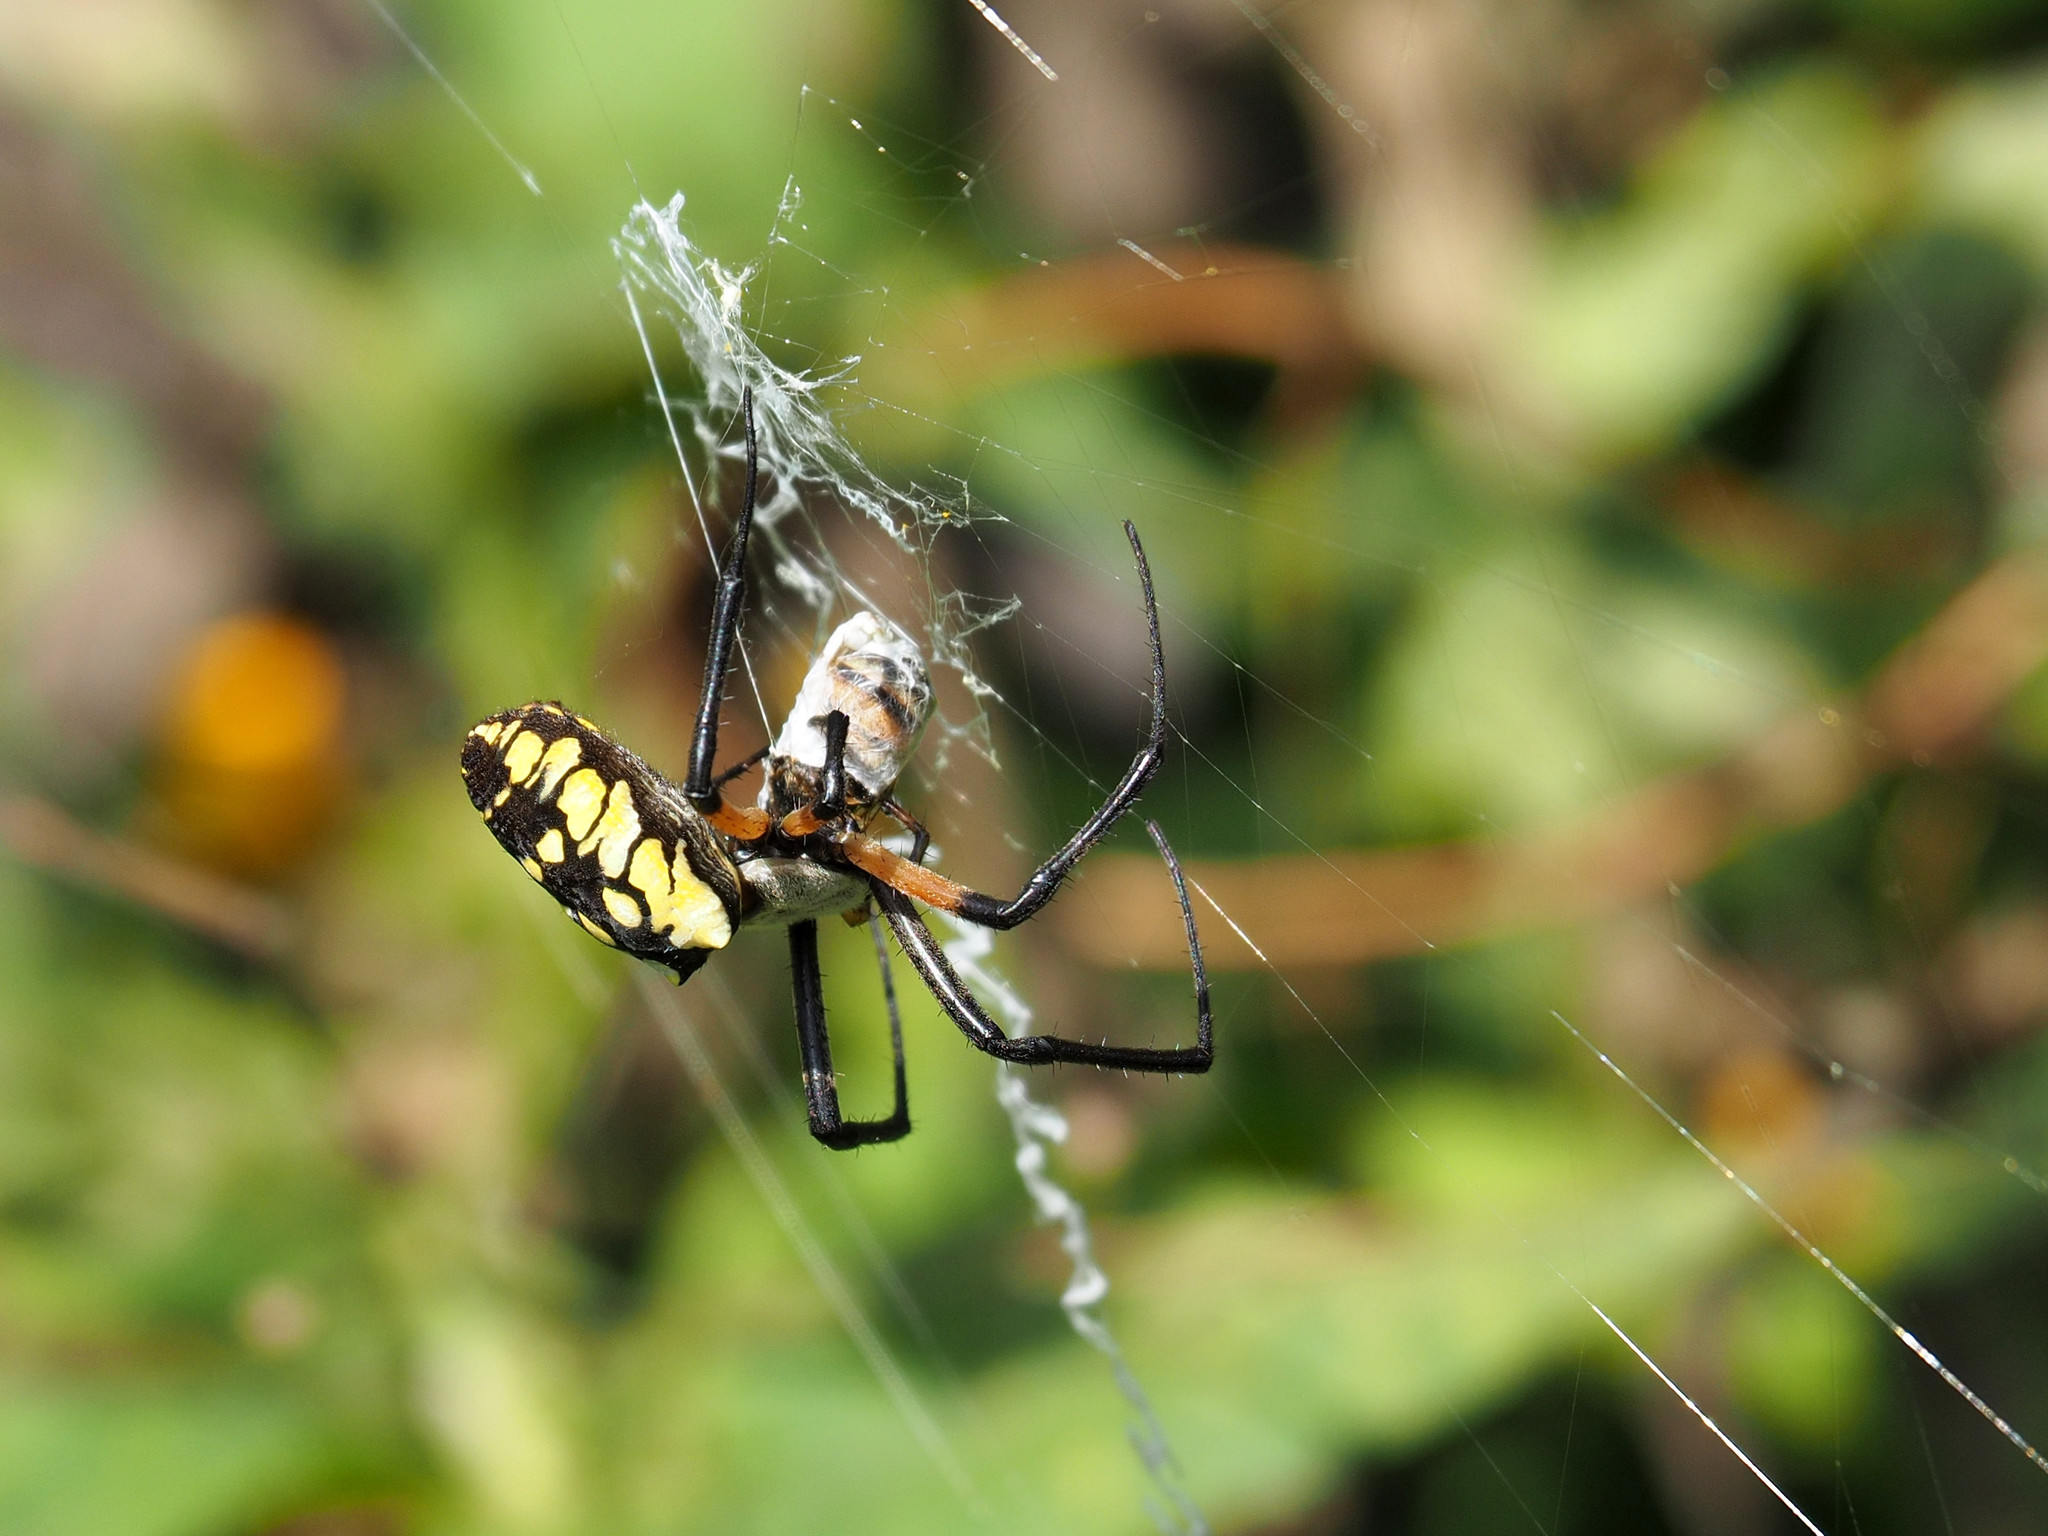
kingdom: Animalia
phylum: Arthropoda
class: Arachnida
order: Araneae
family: Araneidae
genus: Argiope
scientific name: Argiope aurantia
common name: Orb weavers
